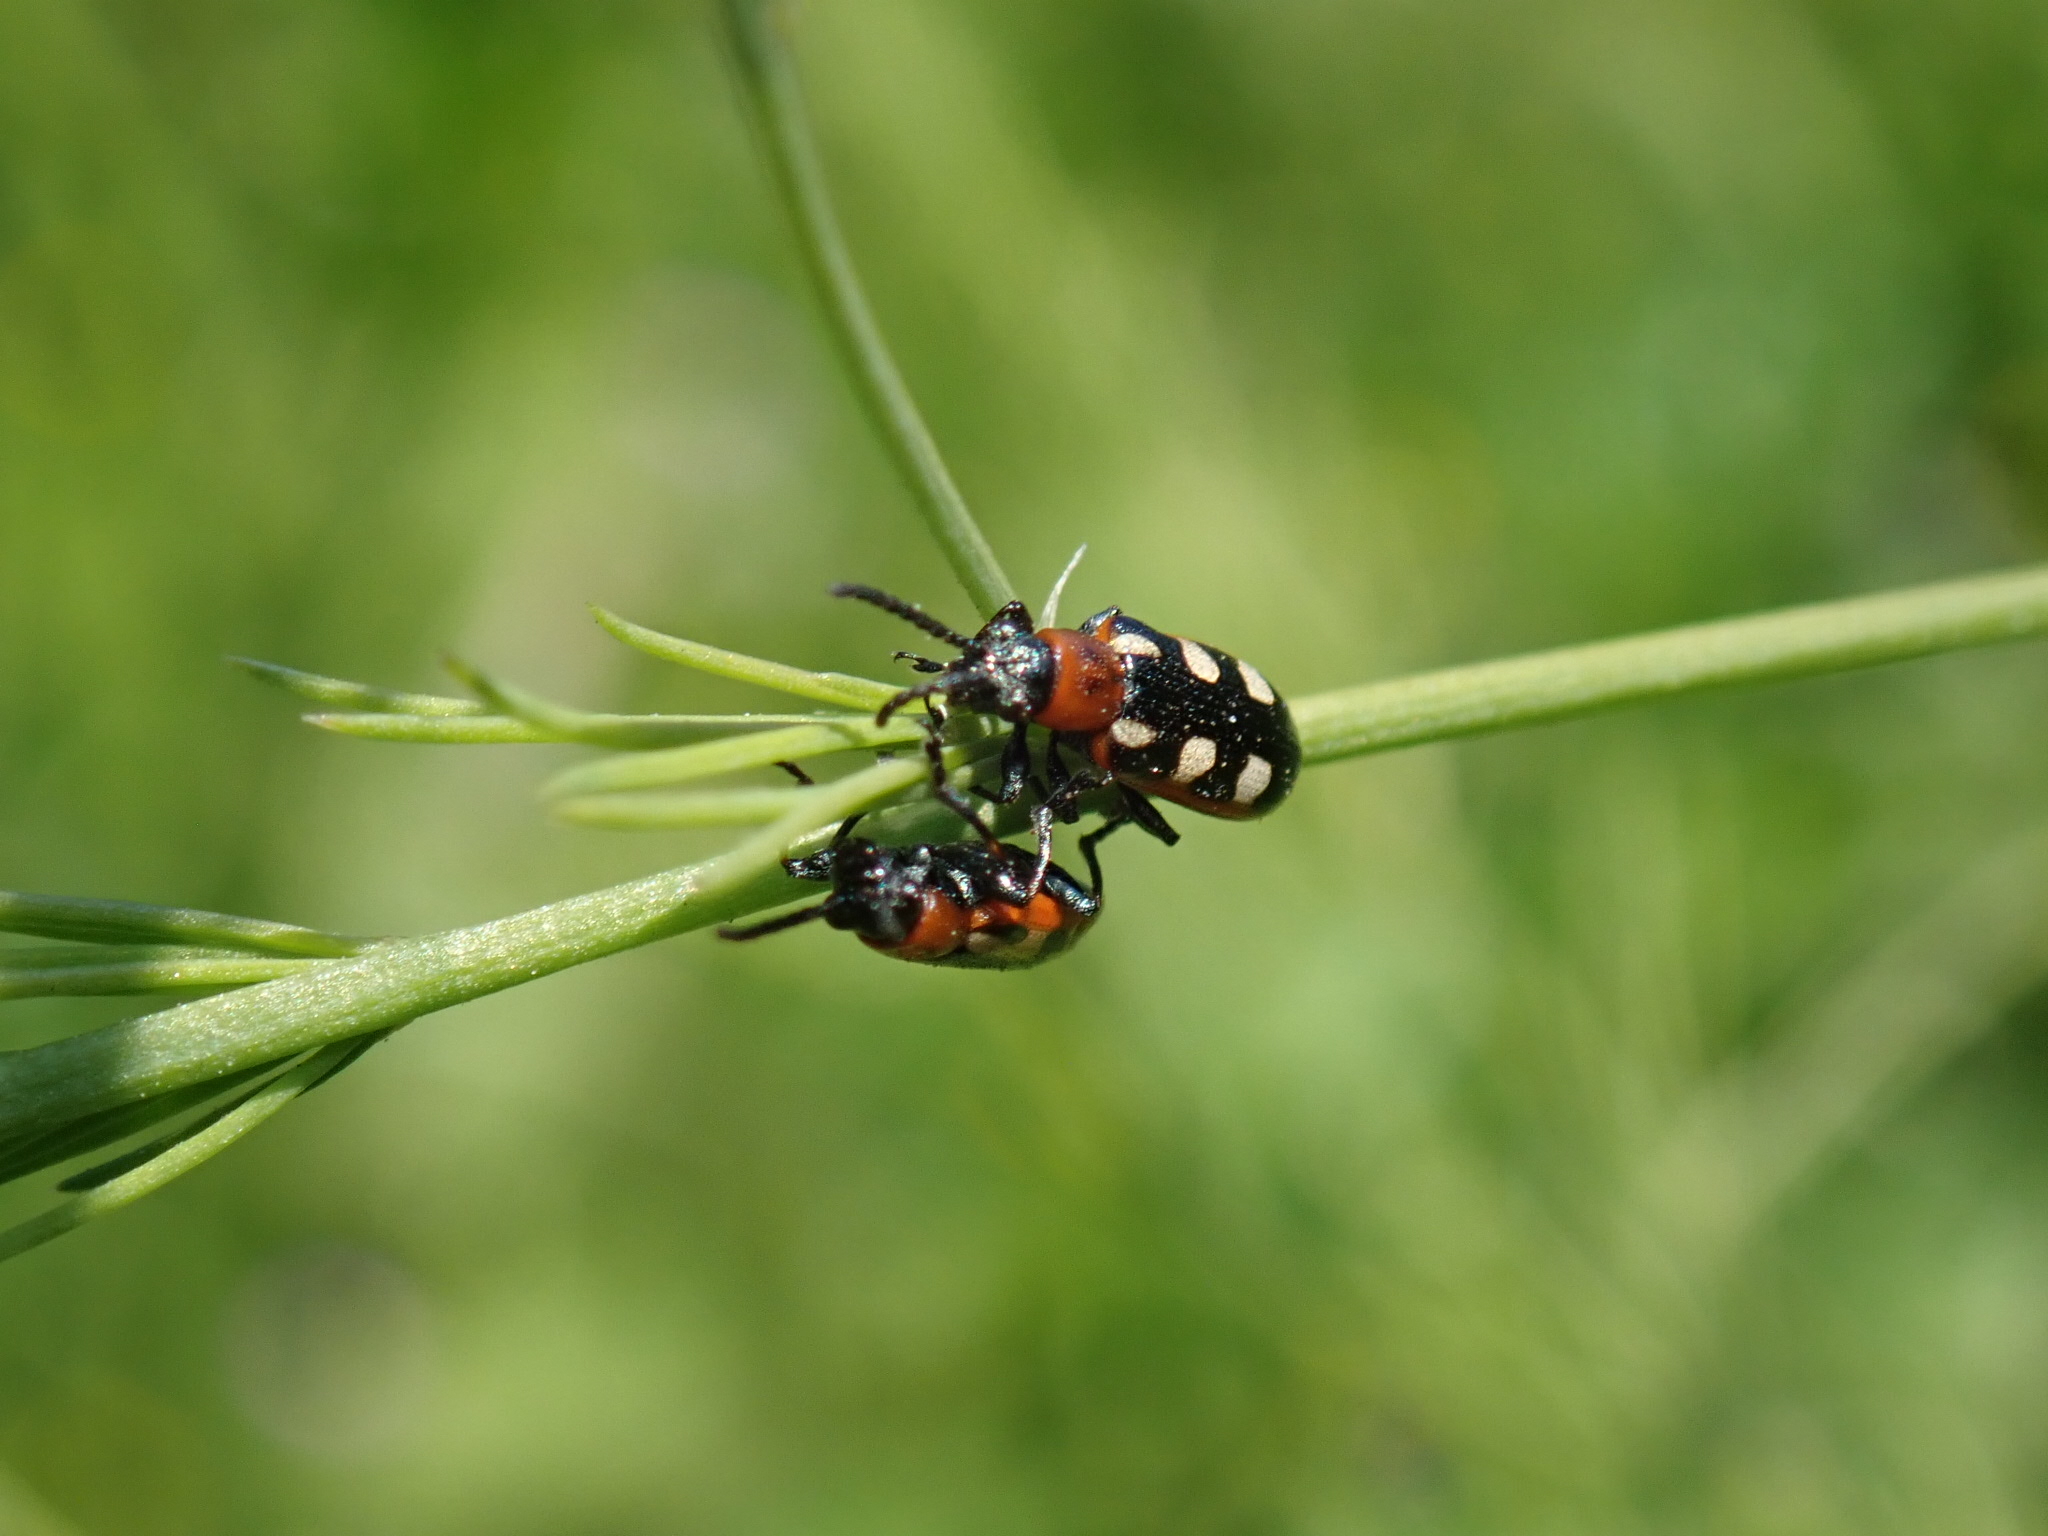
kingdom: Animalia
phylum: Arthropoda
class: Insecta
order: Coleoptera
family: Chrysomelidae
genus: Crioceris
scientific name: Crioceris asparagi
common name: Asparagus beetle
